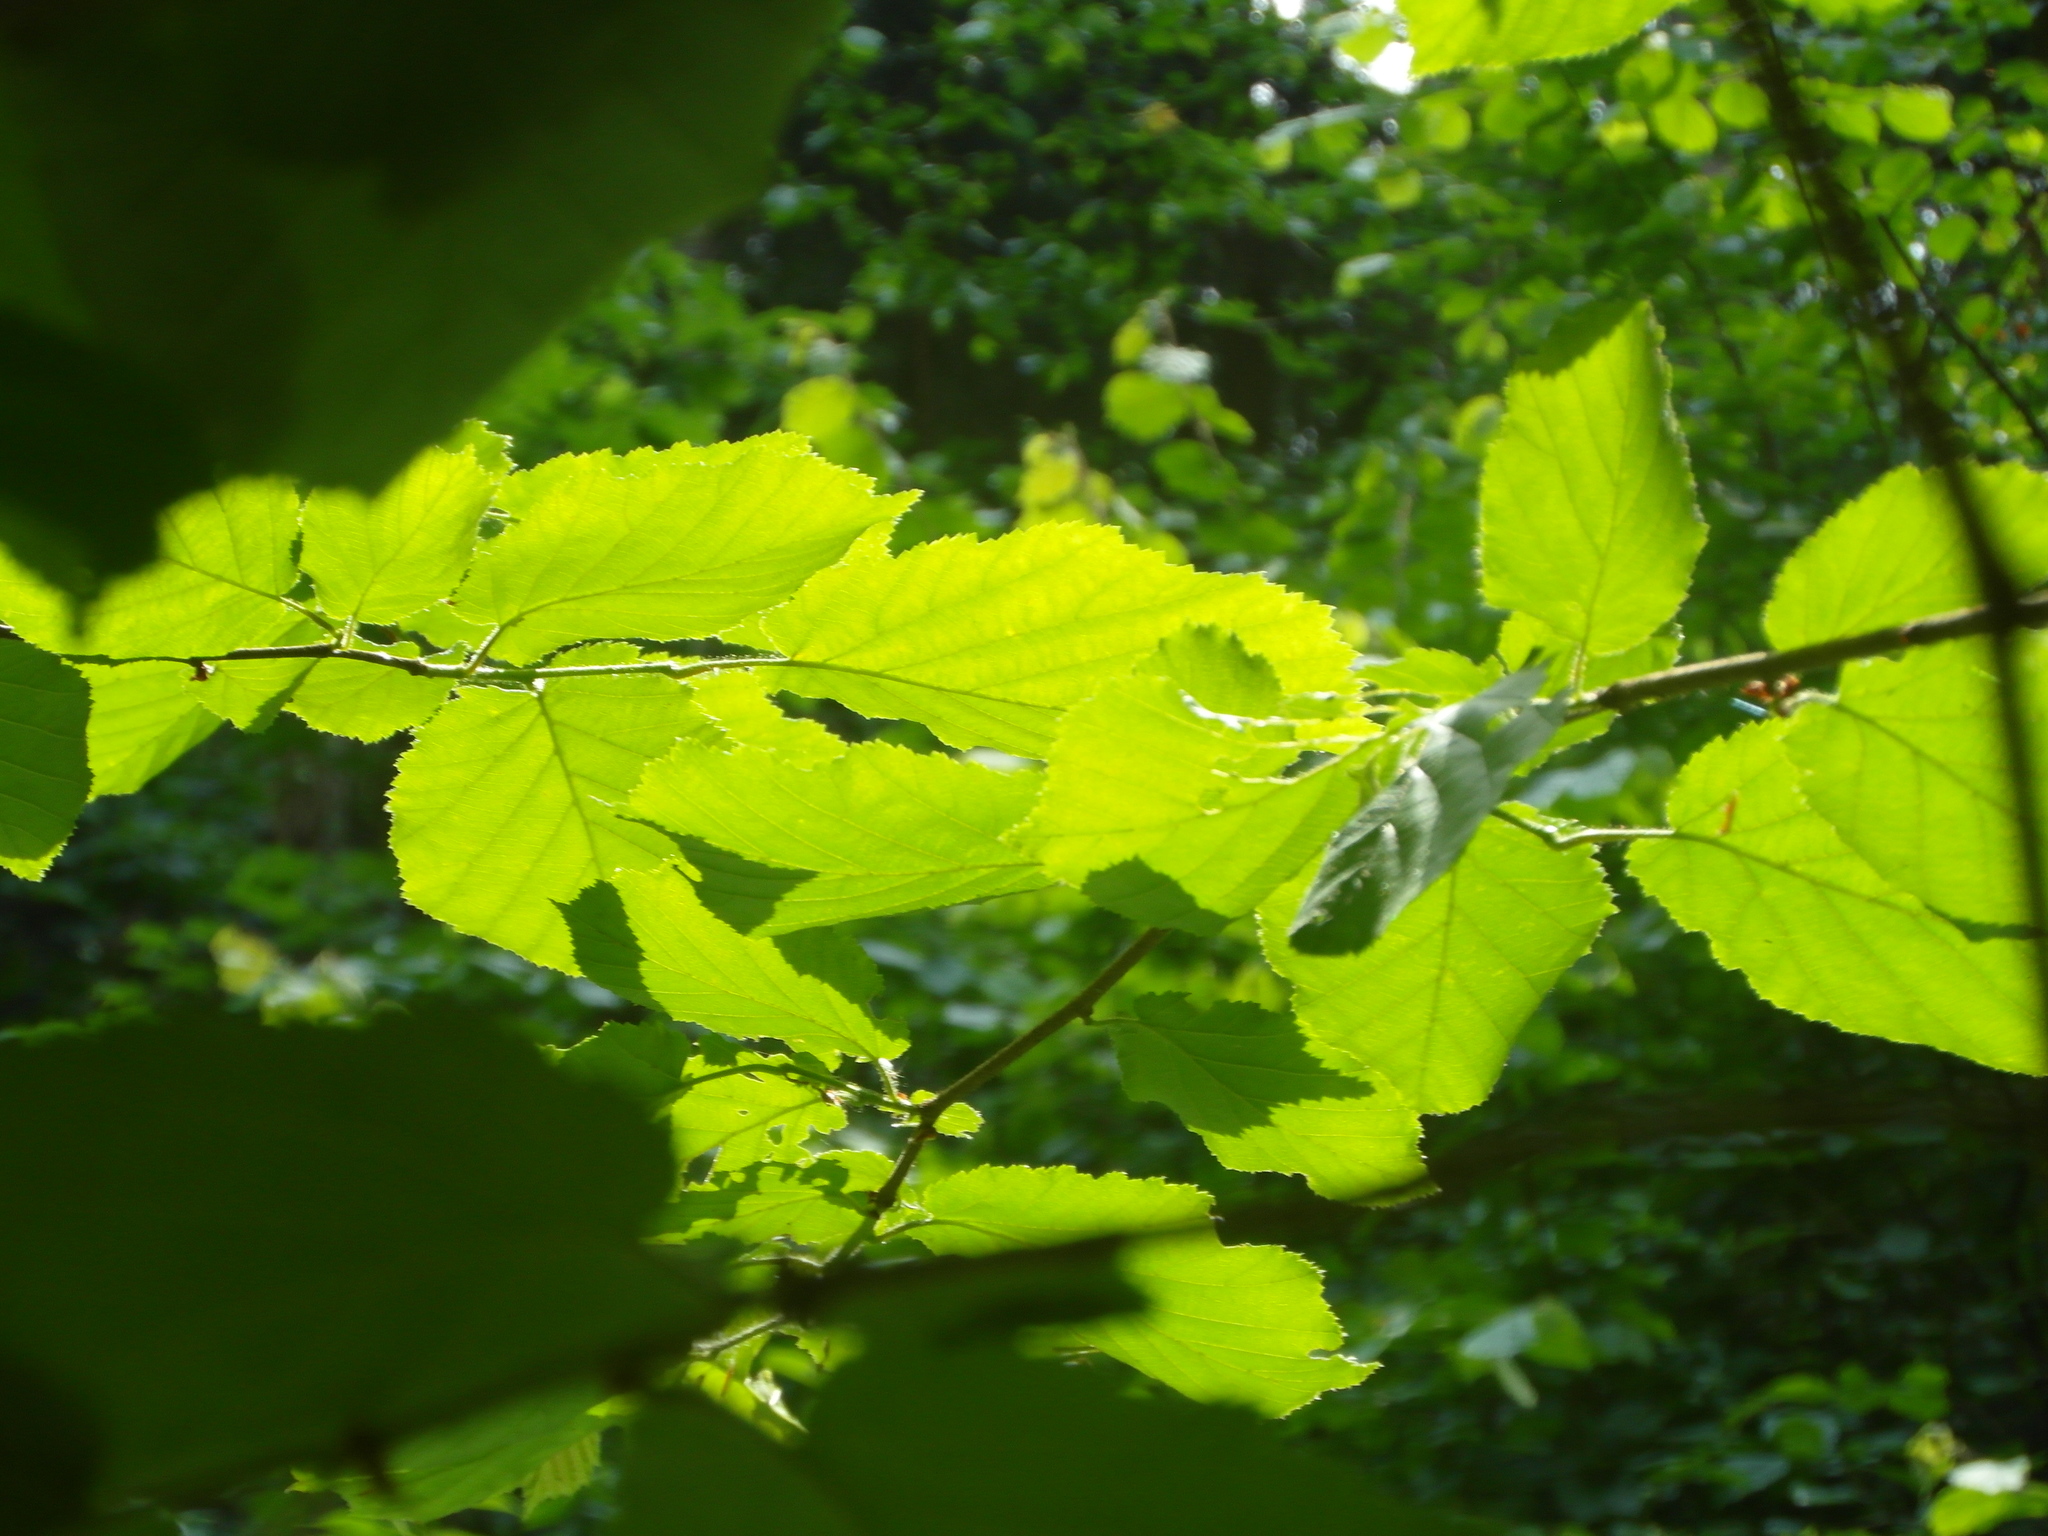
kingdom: Plantae
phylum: Tracheophyta
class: Magnoliopsida
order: Fagales
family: Betulaceae
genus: Corylus
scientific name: Corylus avellana
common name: European hazel
